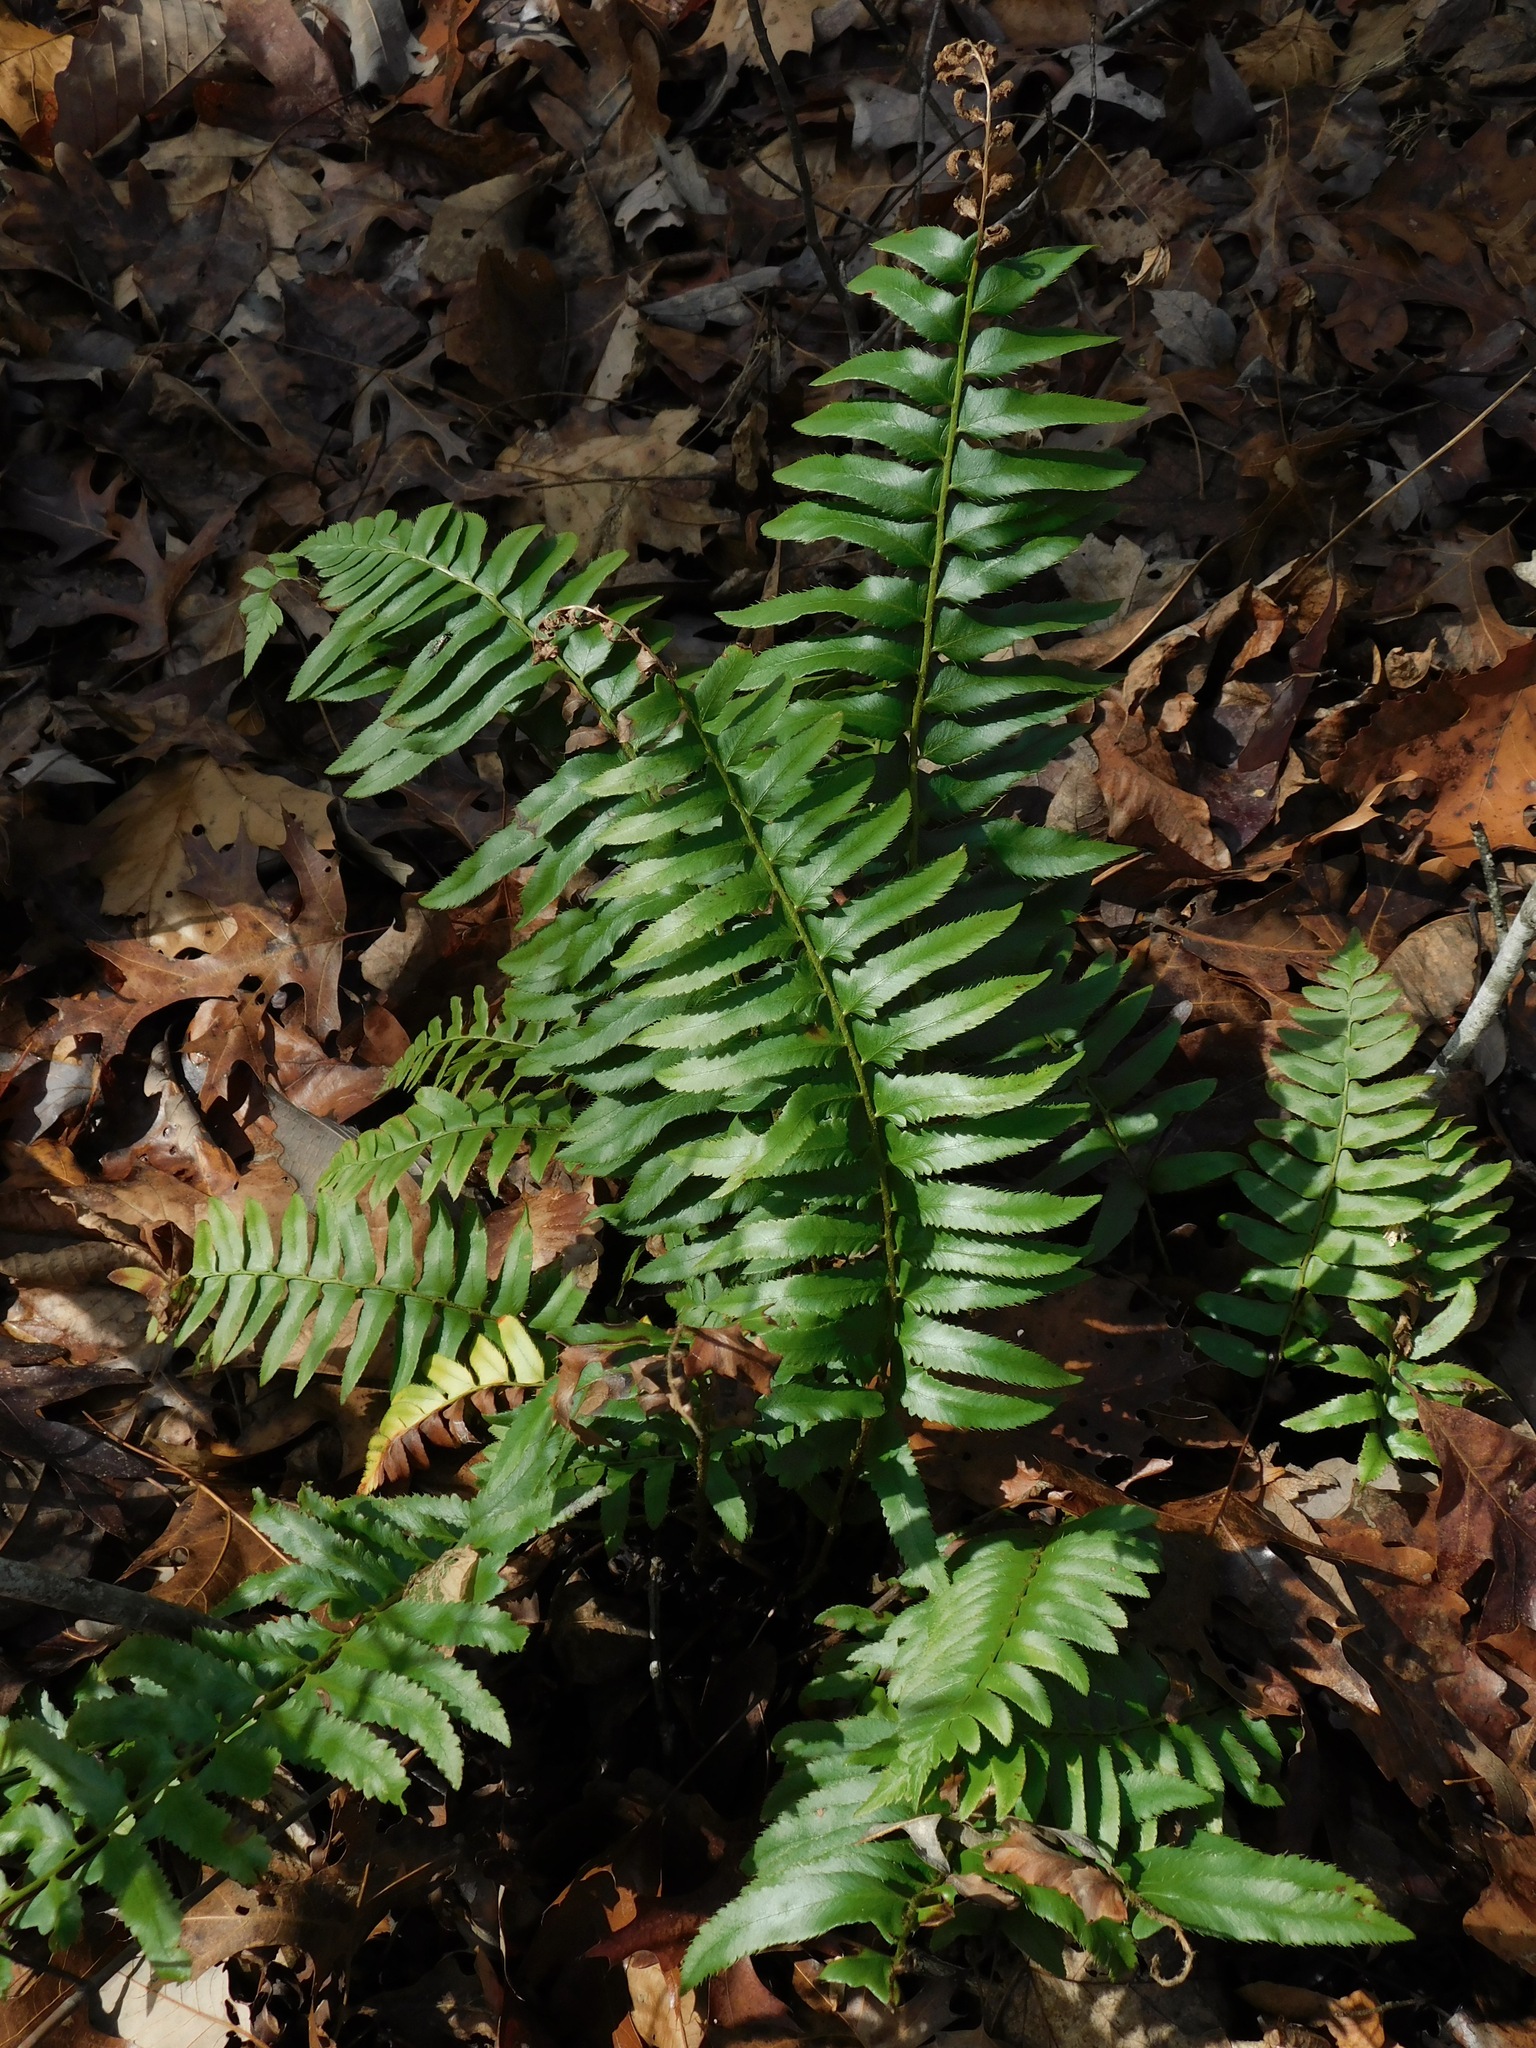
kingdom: Plantae
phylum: Tracheophyta
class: Polypodiopsida
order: Polypodiales
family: Dryopteridaceae
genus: Polystichum
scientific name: Polystichum acrostichoides
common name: Christmas fern
